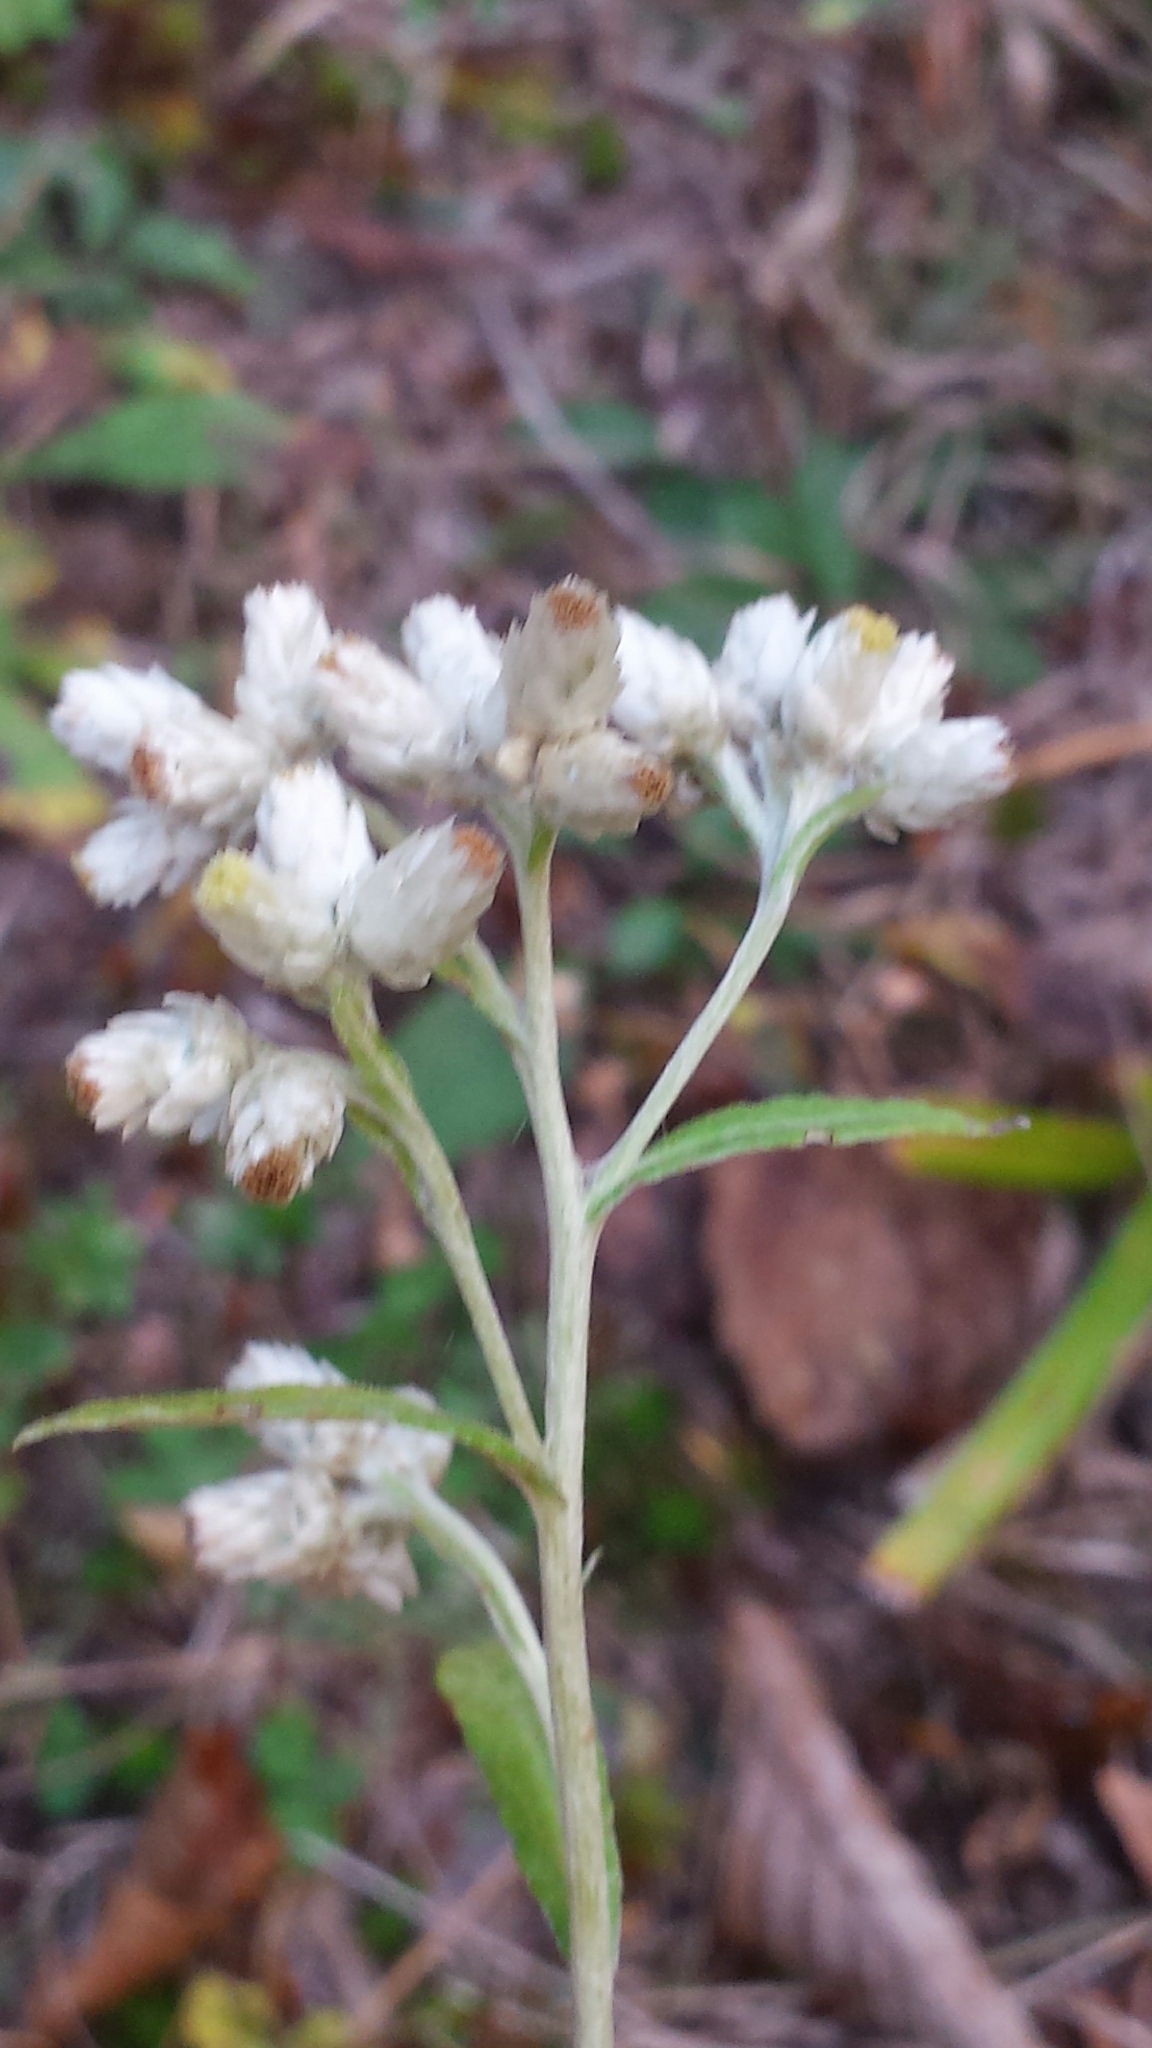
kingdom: Plantae
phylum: Tracheophyta
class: Magnoliopsida
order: Asterales
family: Asteraceae
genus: Pseudognaphalium
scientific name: Pseudognaphalium obtusifolium
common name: Eastern rabbit-tobacco
